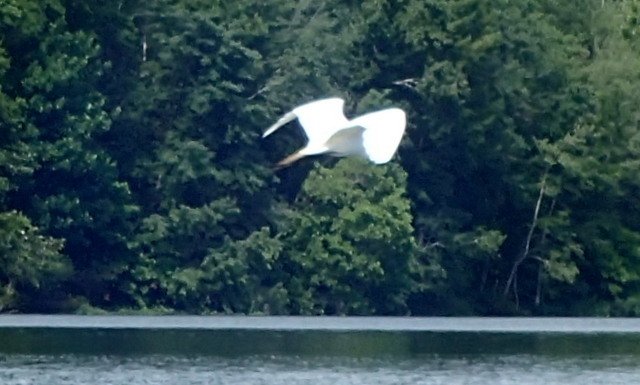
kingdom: Animalia
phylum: Chordata
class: Aves
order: Pelecaniformes
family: Ardeidae
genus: Ardea
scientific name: Ardea alba
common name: Great egret
